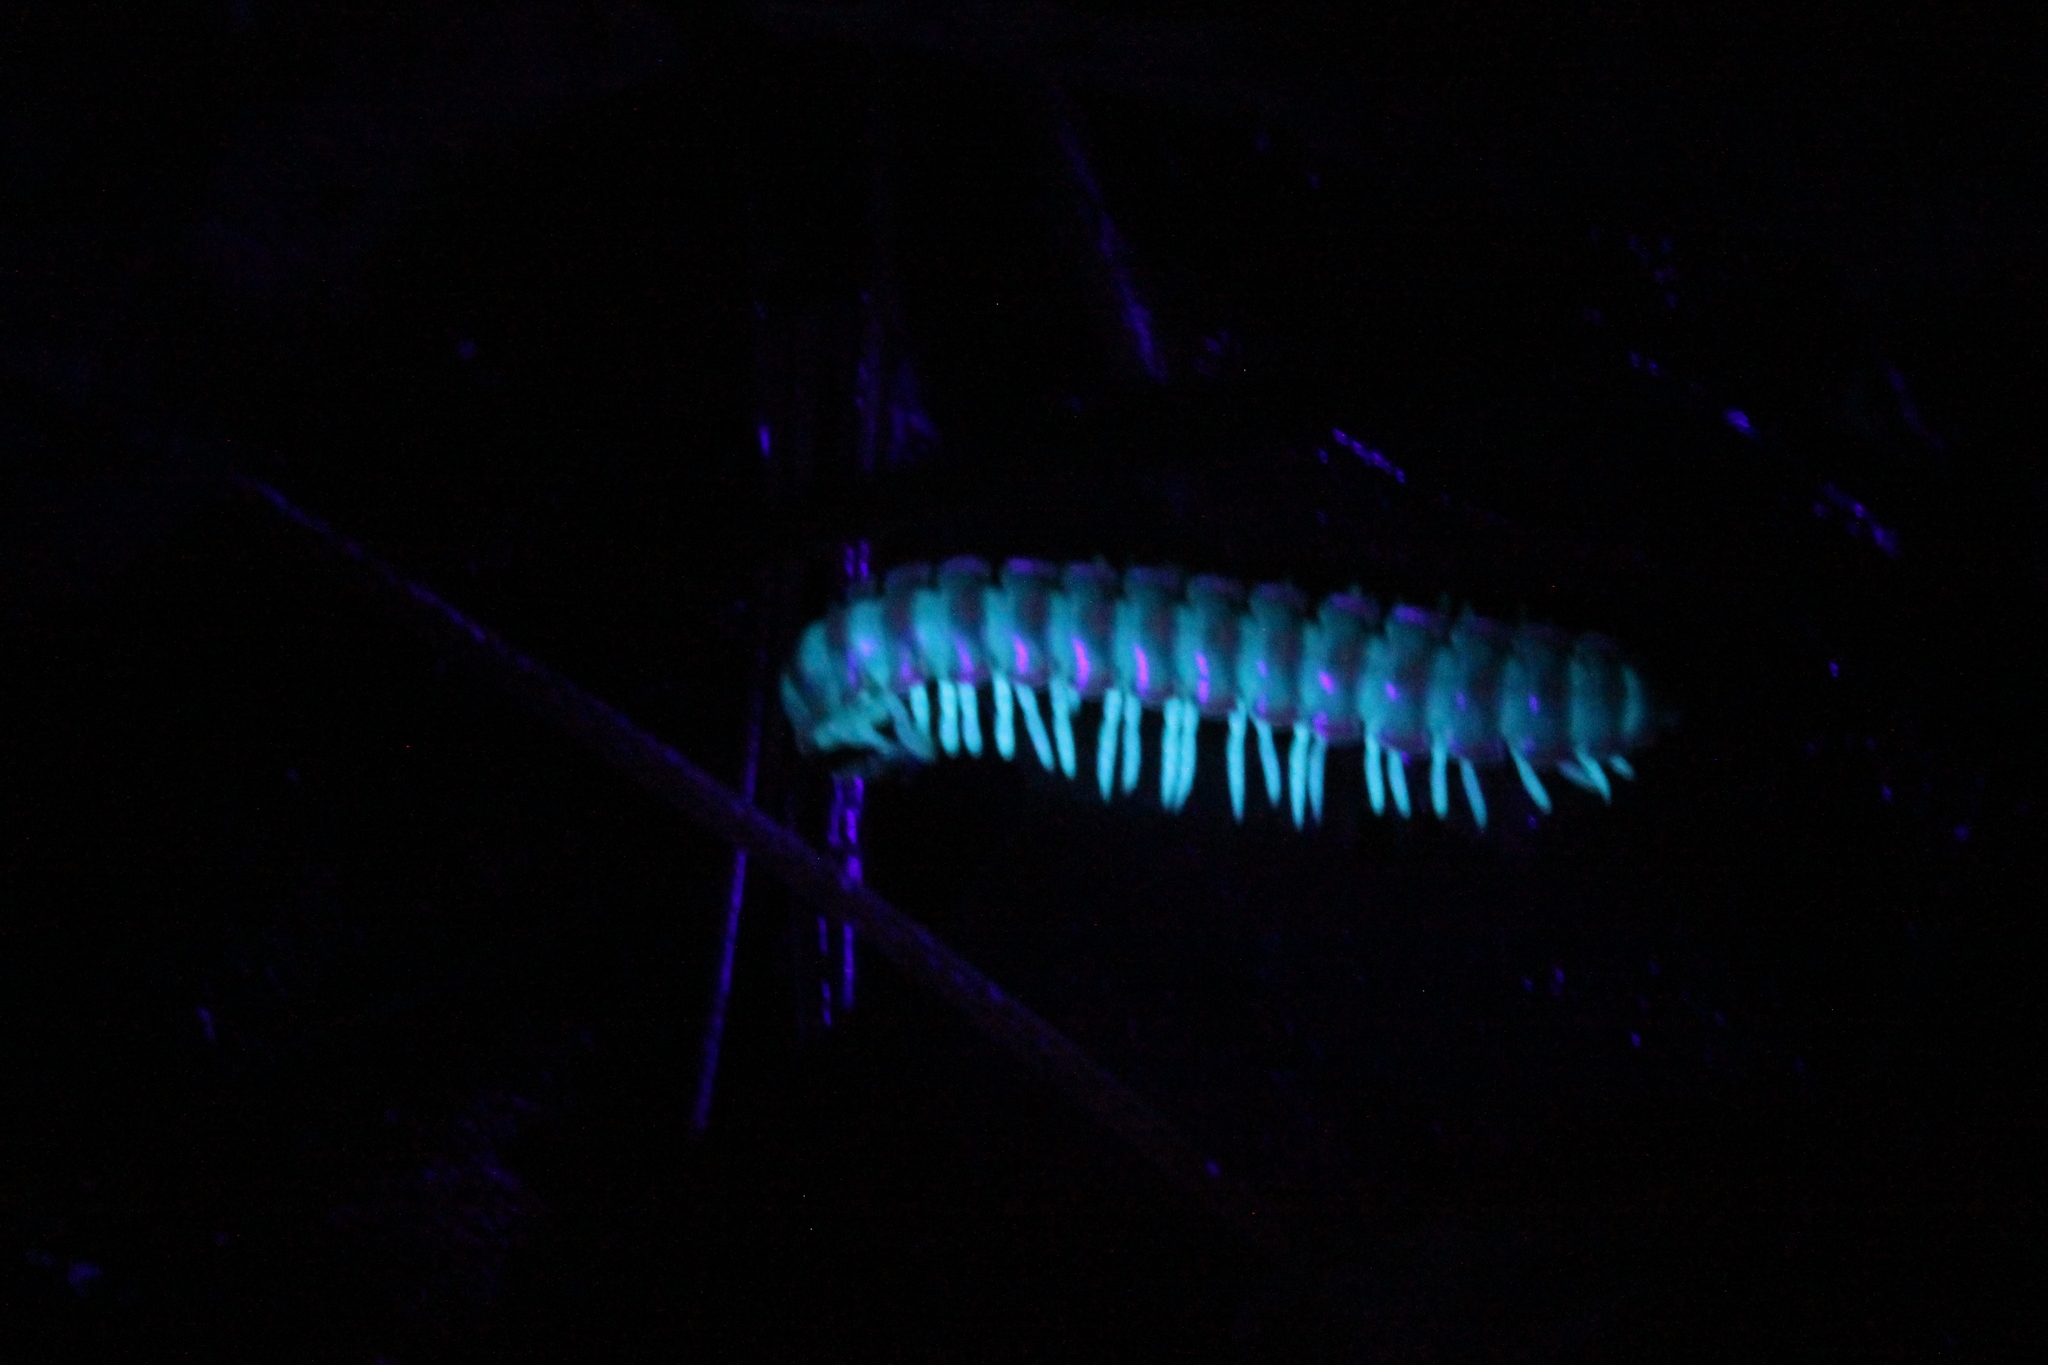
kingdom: Animalia
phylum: Arthropoda
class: Diplopoda
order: Polydesmida
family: Xystodesmidae
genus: Euryurus
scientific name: Euryurus leachii
